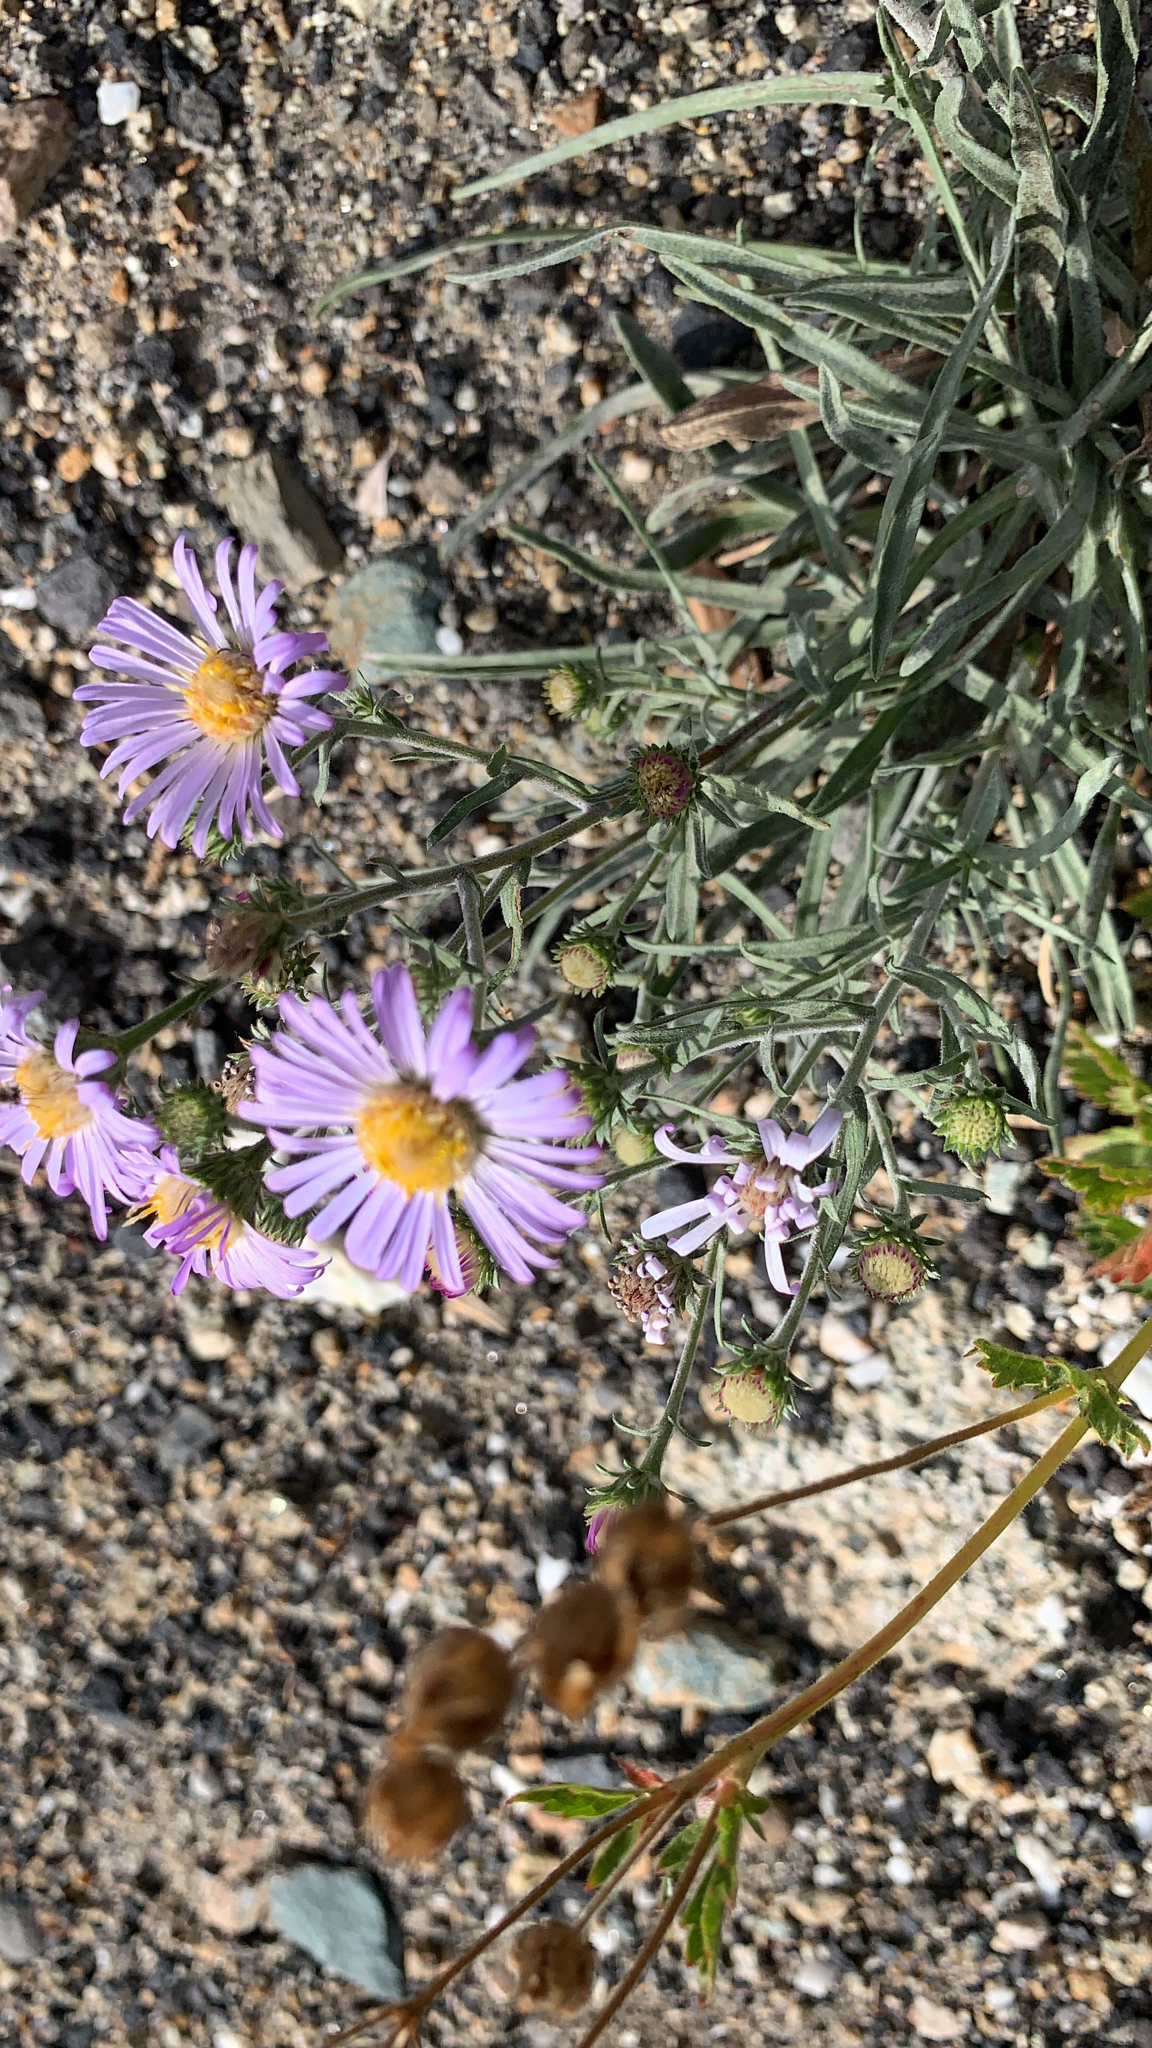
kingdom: Plantae
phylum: Tracheophyta
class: Magnoliopsida
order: Asterales
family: Asteraceae
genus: Dieteria
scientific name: Dieteria canescens
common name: Hoary-aster
